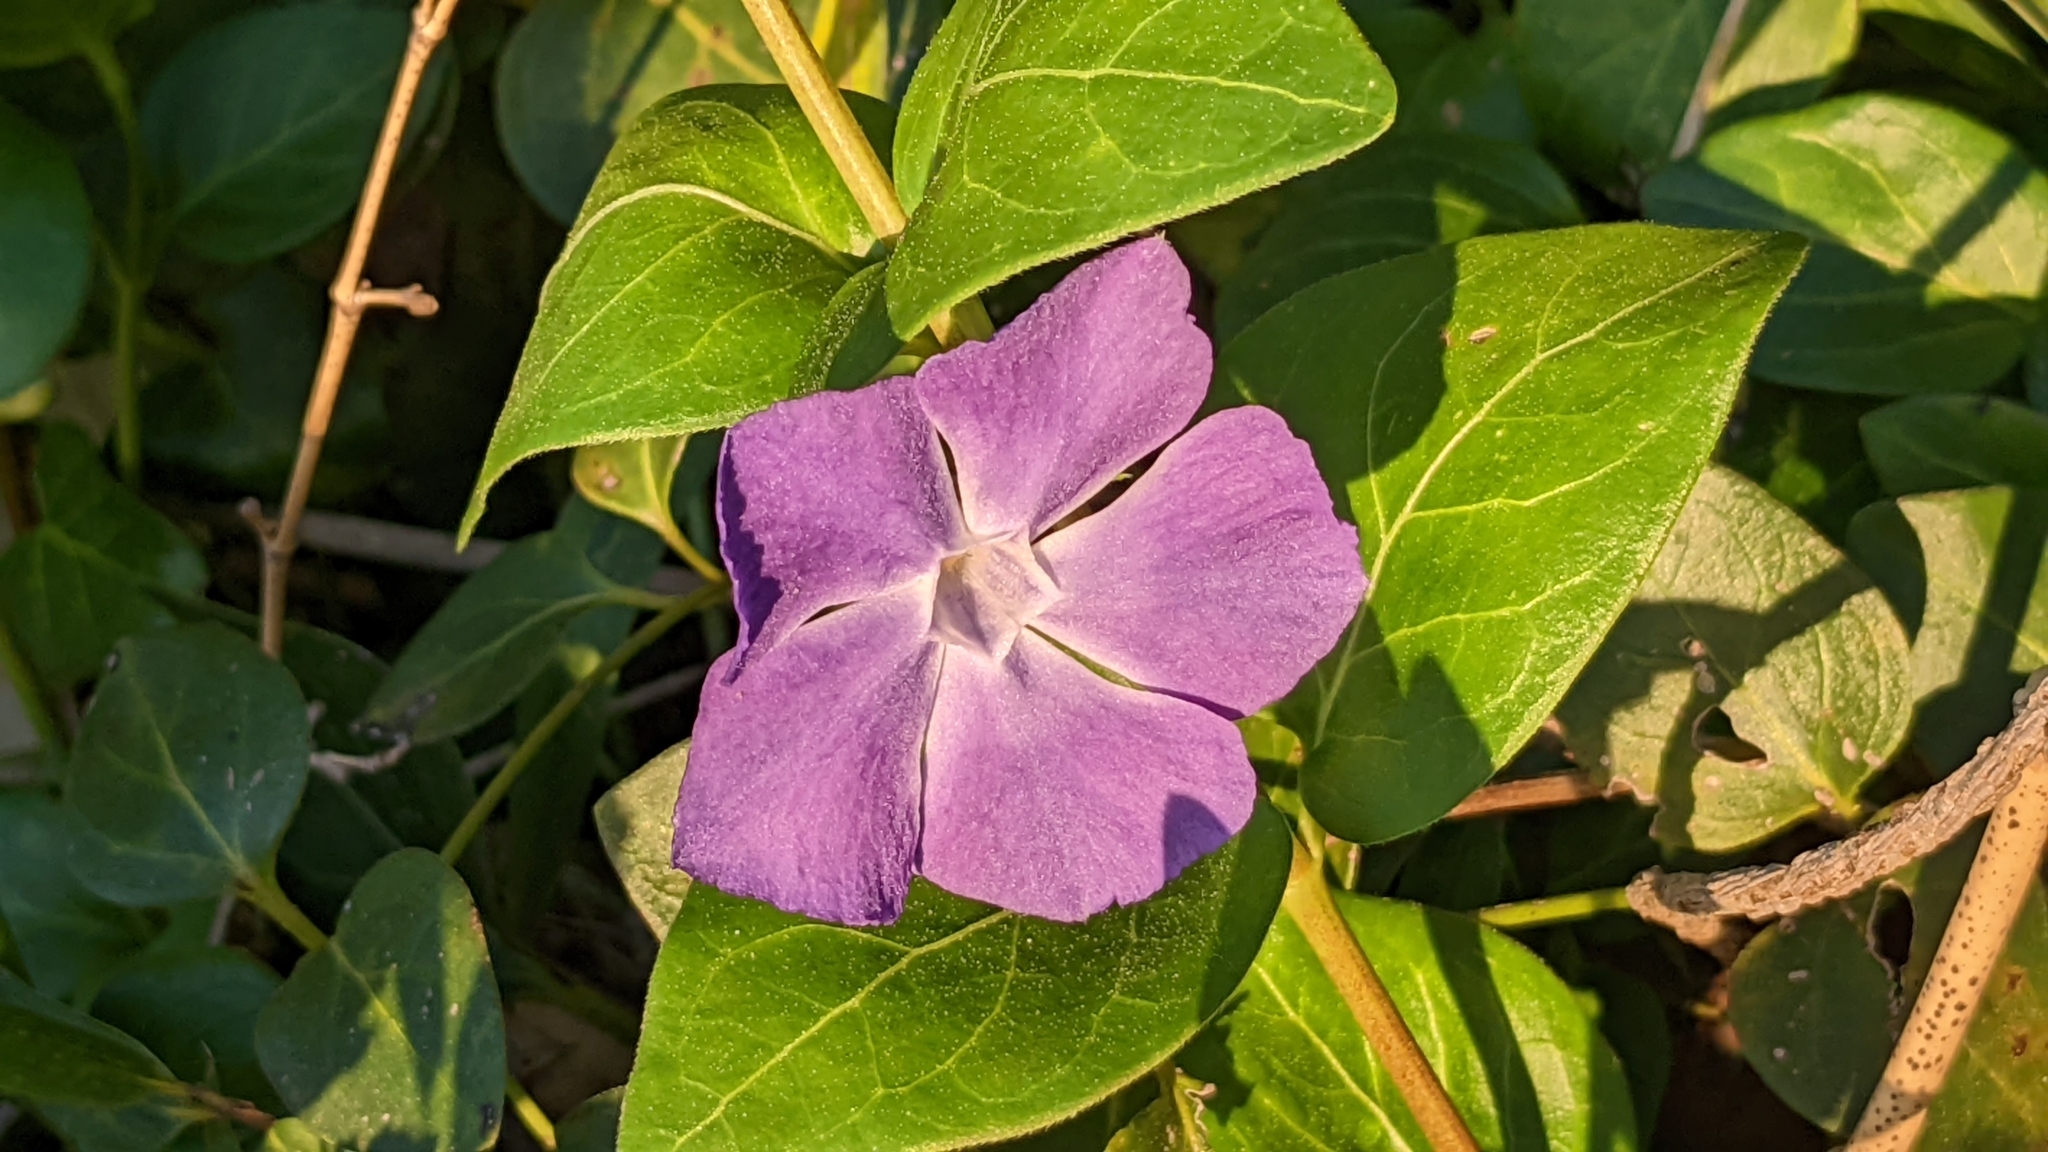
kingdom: Plantae
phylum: Tracheophyta
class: Magnoliopsida
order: Gentianales
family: Apocynaceae
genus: Vinca
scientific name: Vinca major
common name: Greater periwinkle
